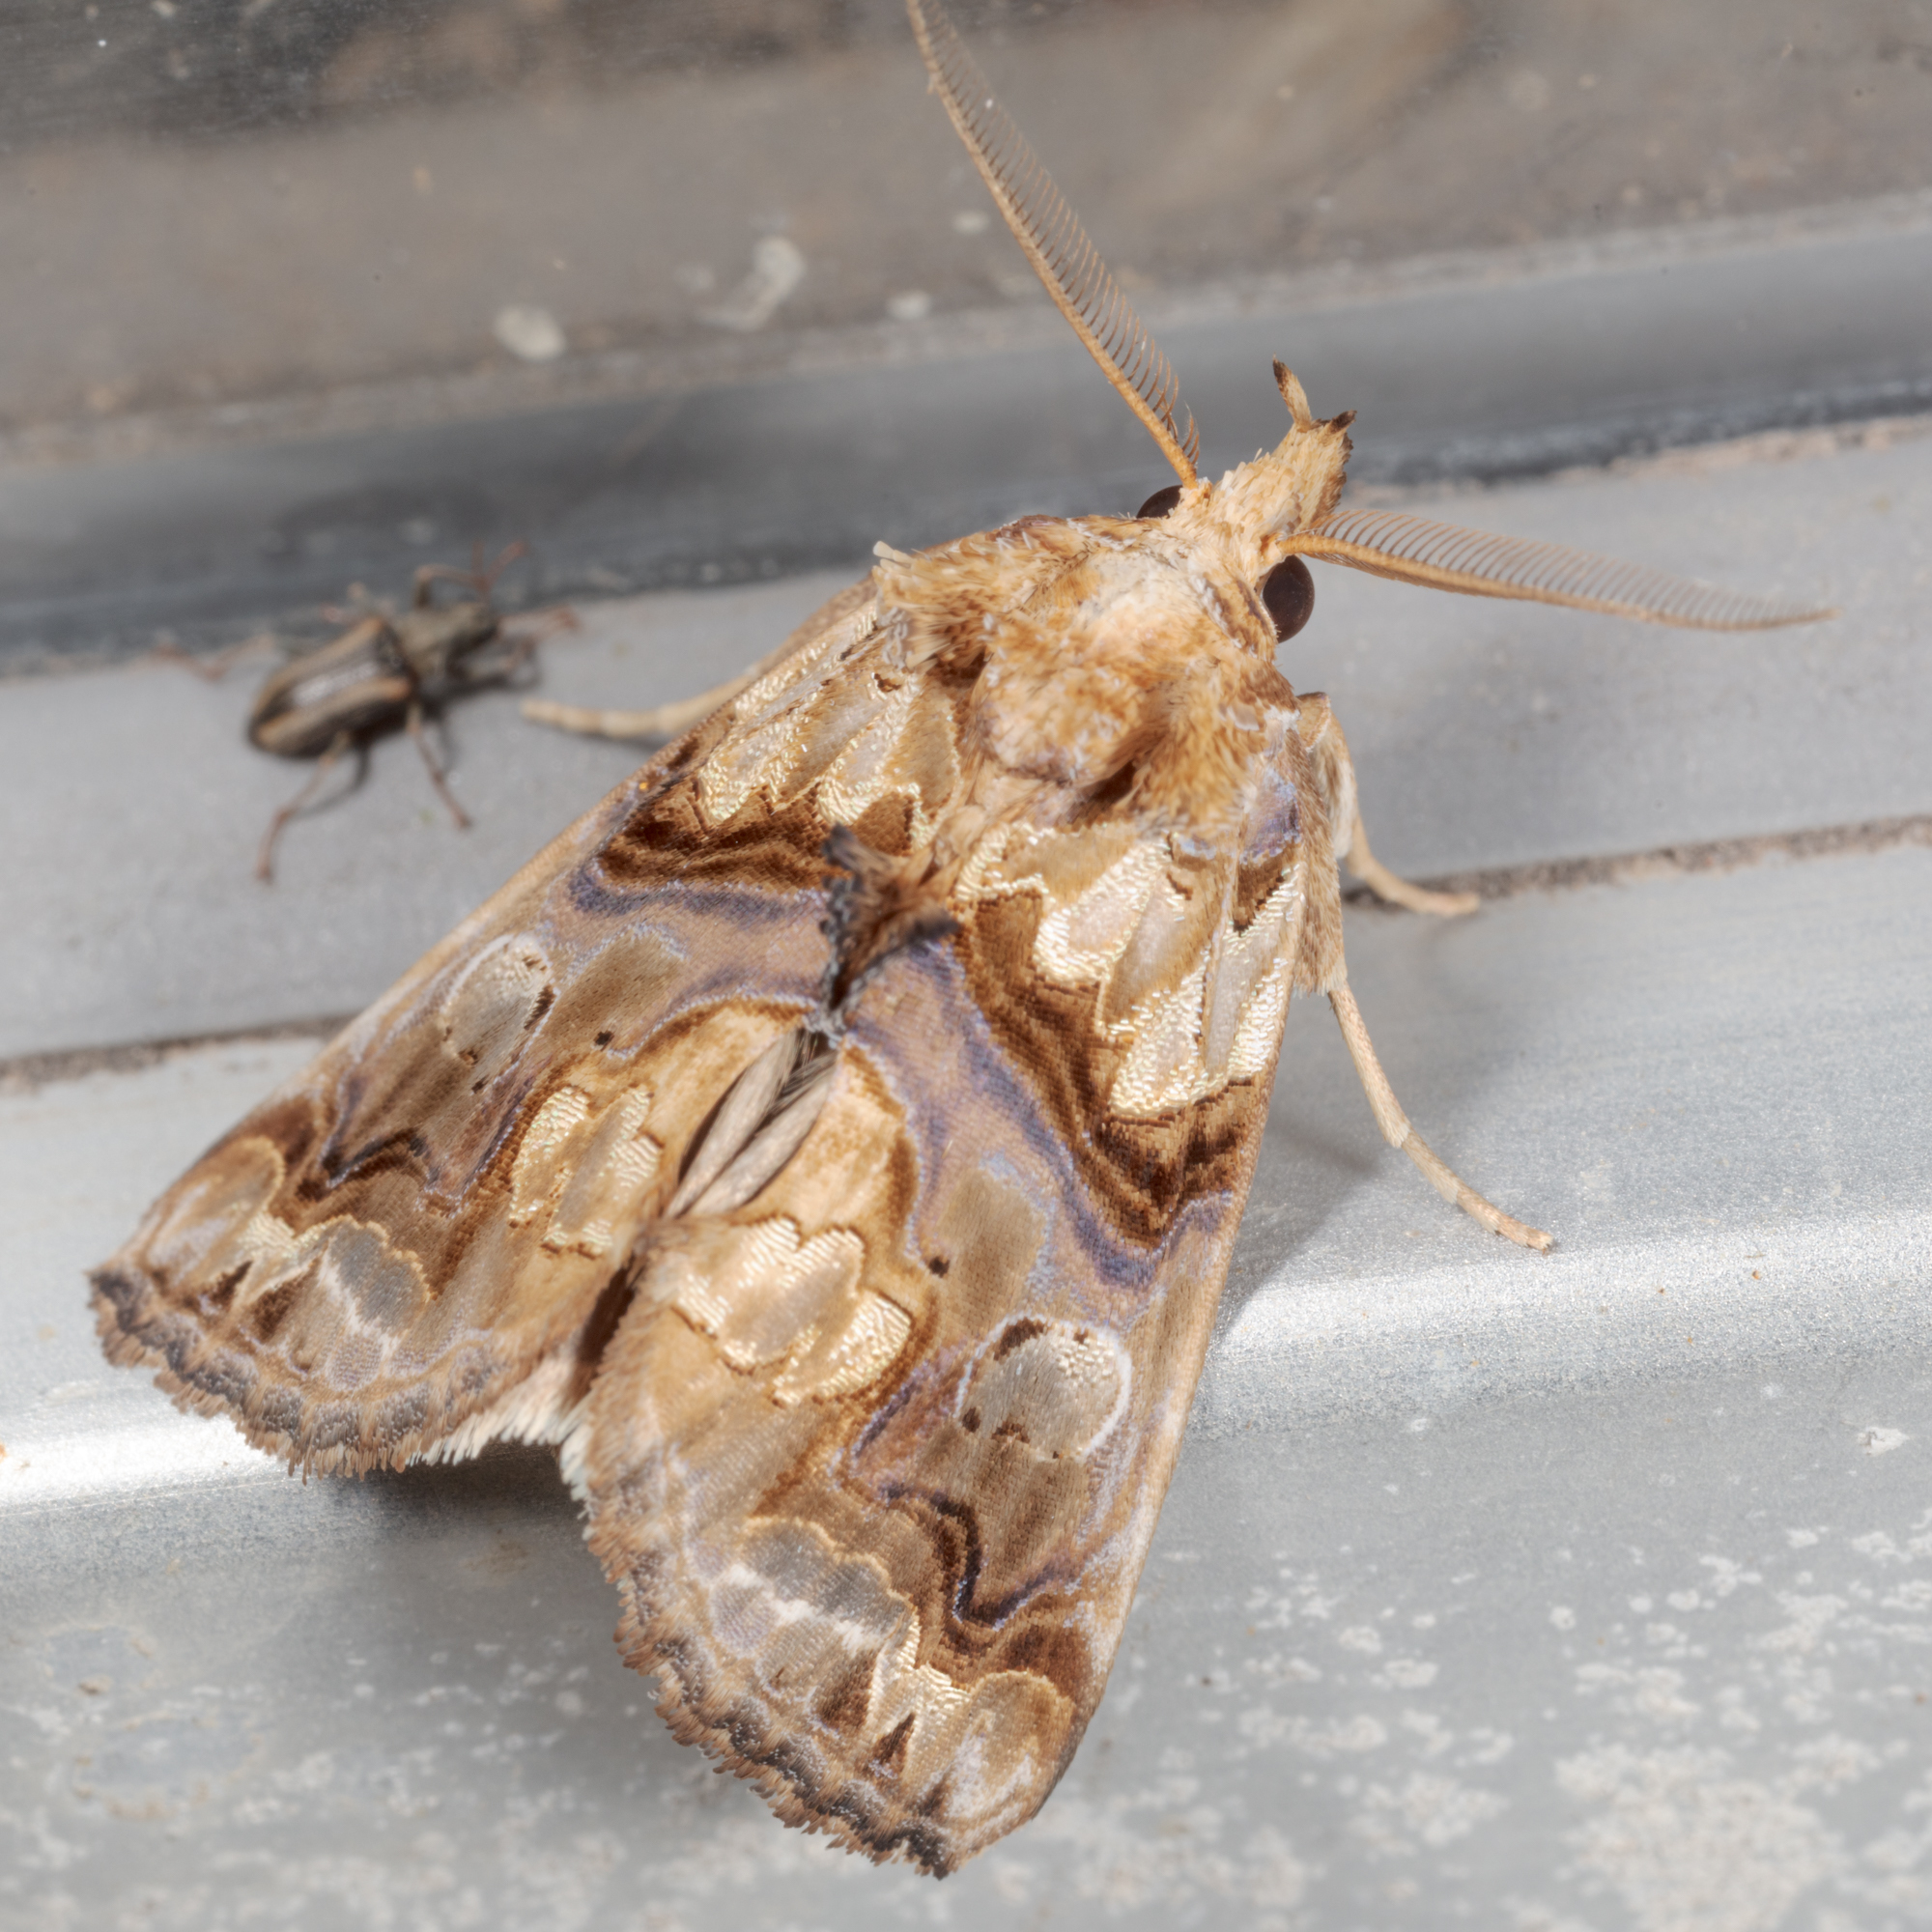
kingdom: Animalia
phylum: Arthropoda
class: Insecta
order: Lepidoptera
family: Erebidae
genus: Plusiodonta
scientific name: Plusiodonta compressipalpis
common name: Moonseed moth
